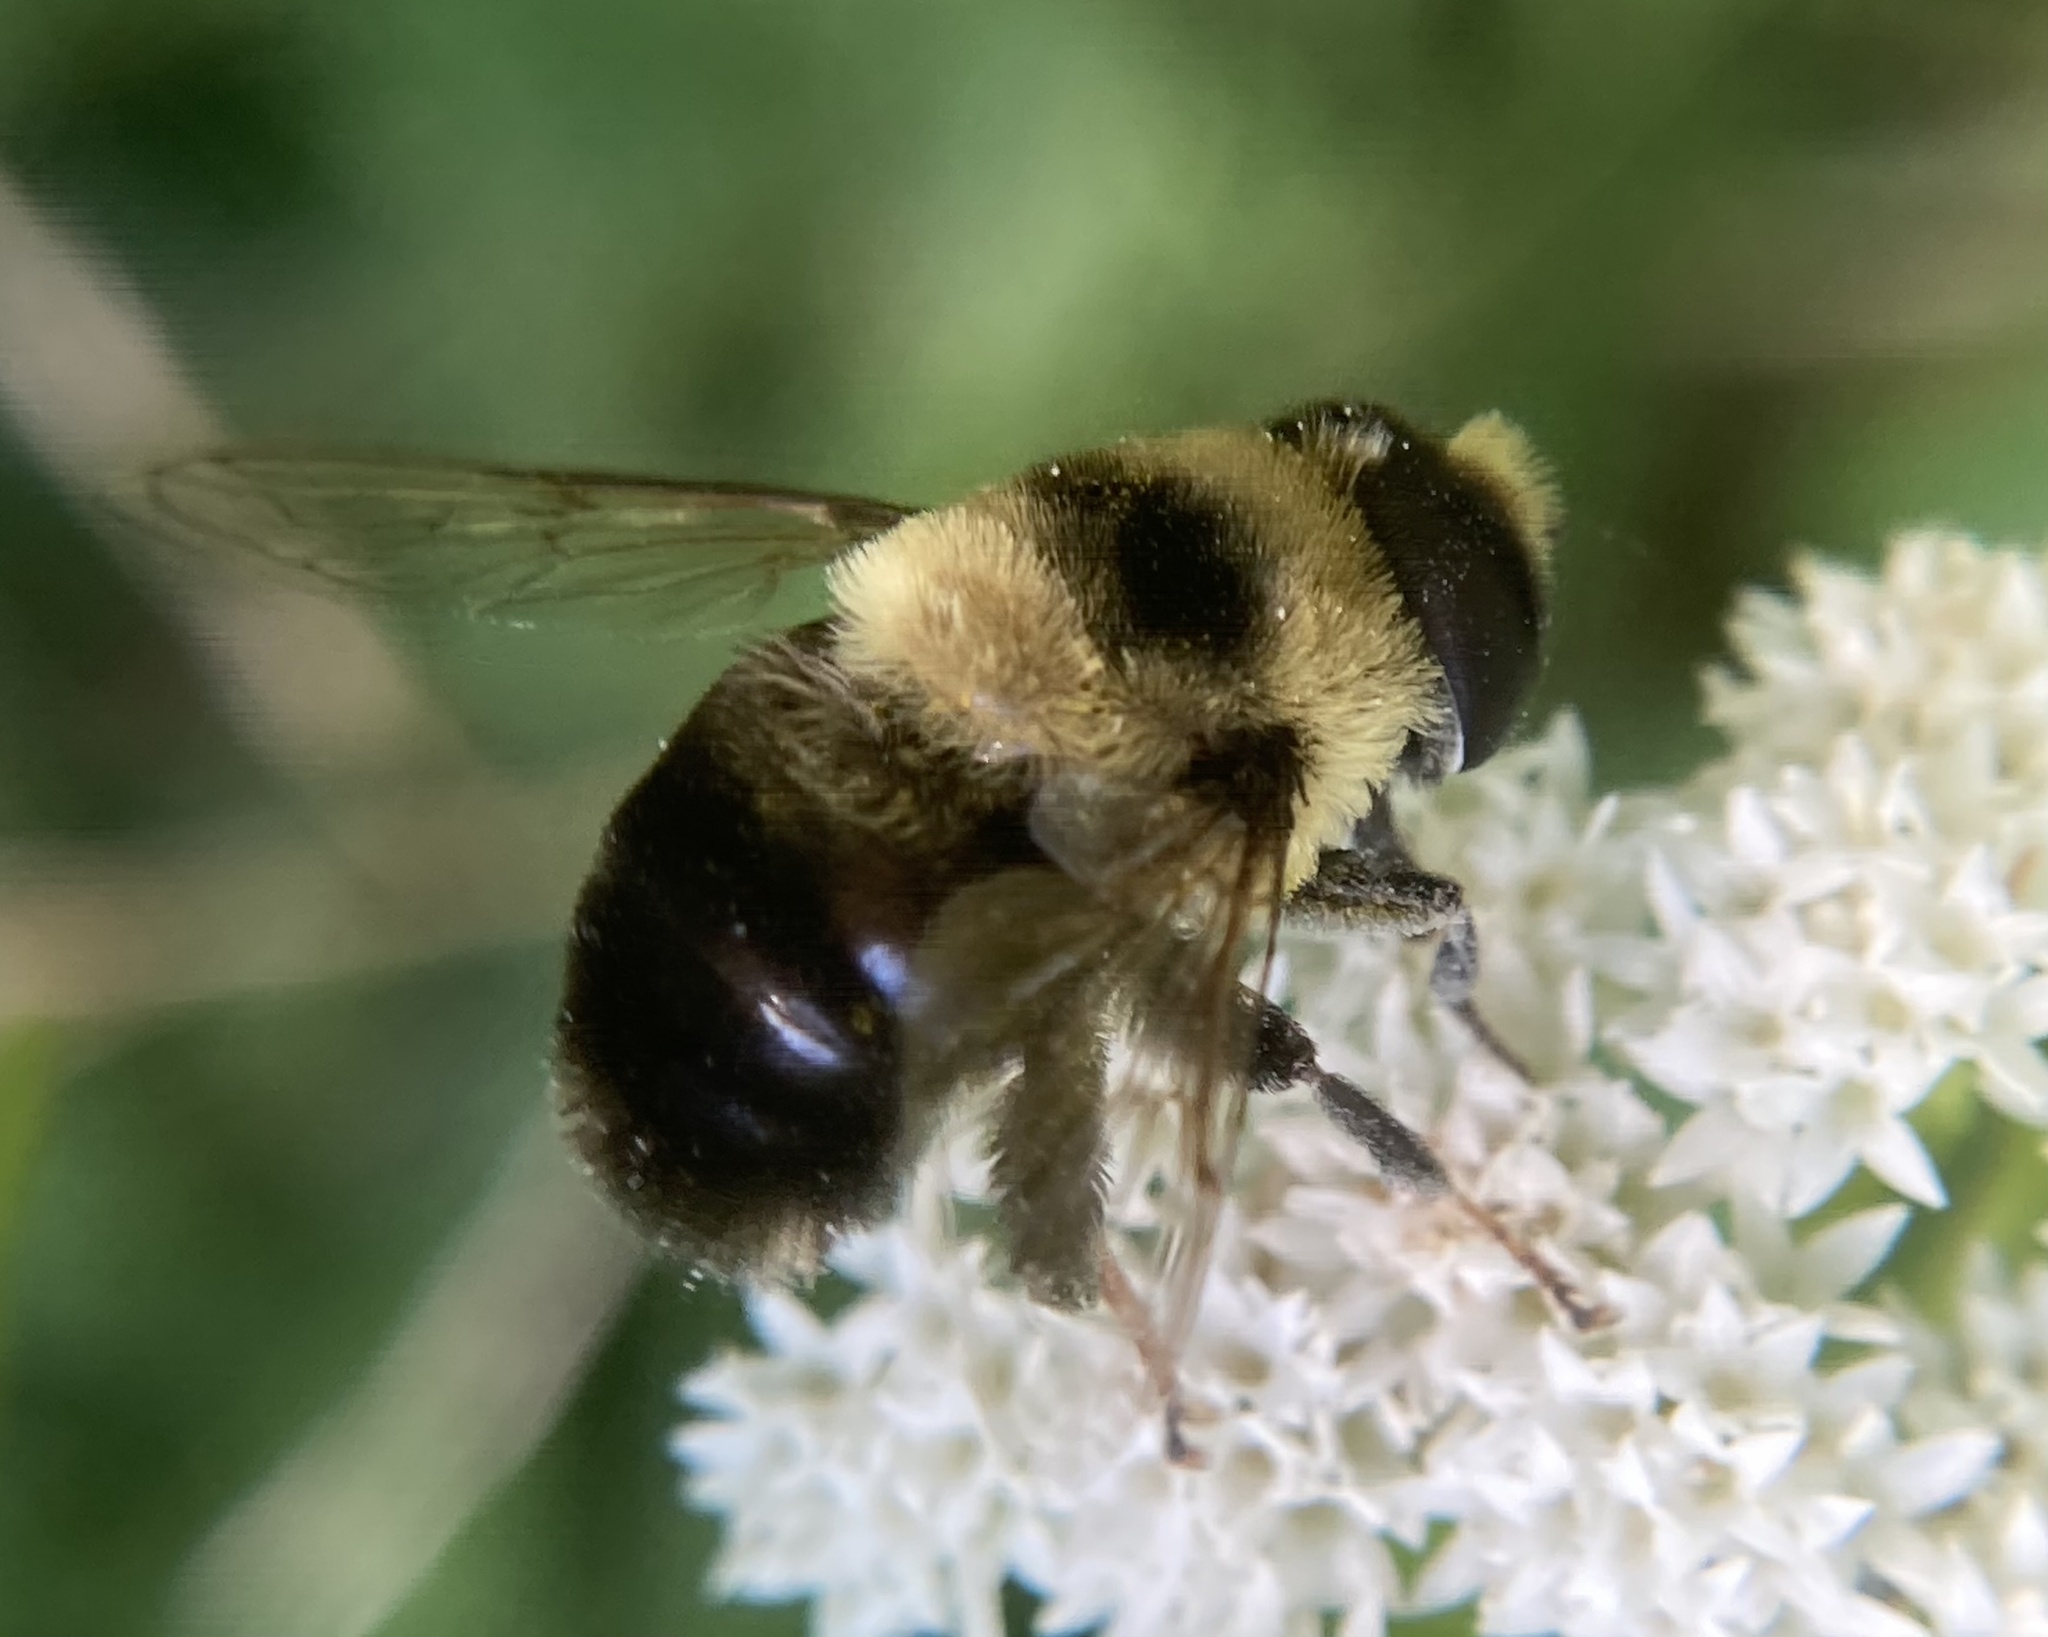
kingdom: Animalia
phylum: Arthropoda
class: Insecta
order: Diptera
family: Syrphidae
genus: Eristalis
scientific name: Eristalis flavipes
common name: Orange-legged drone fly
